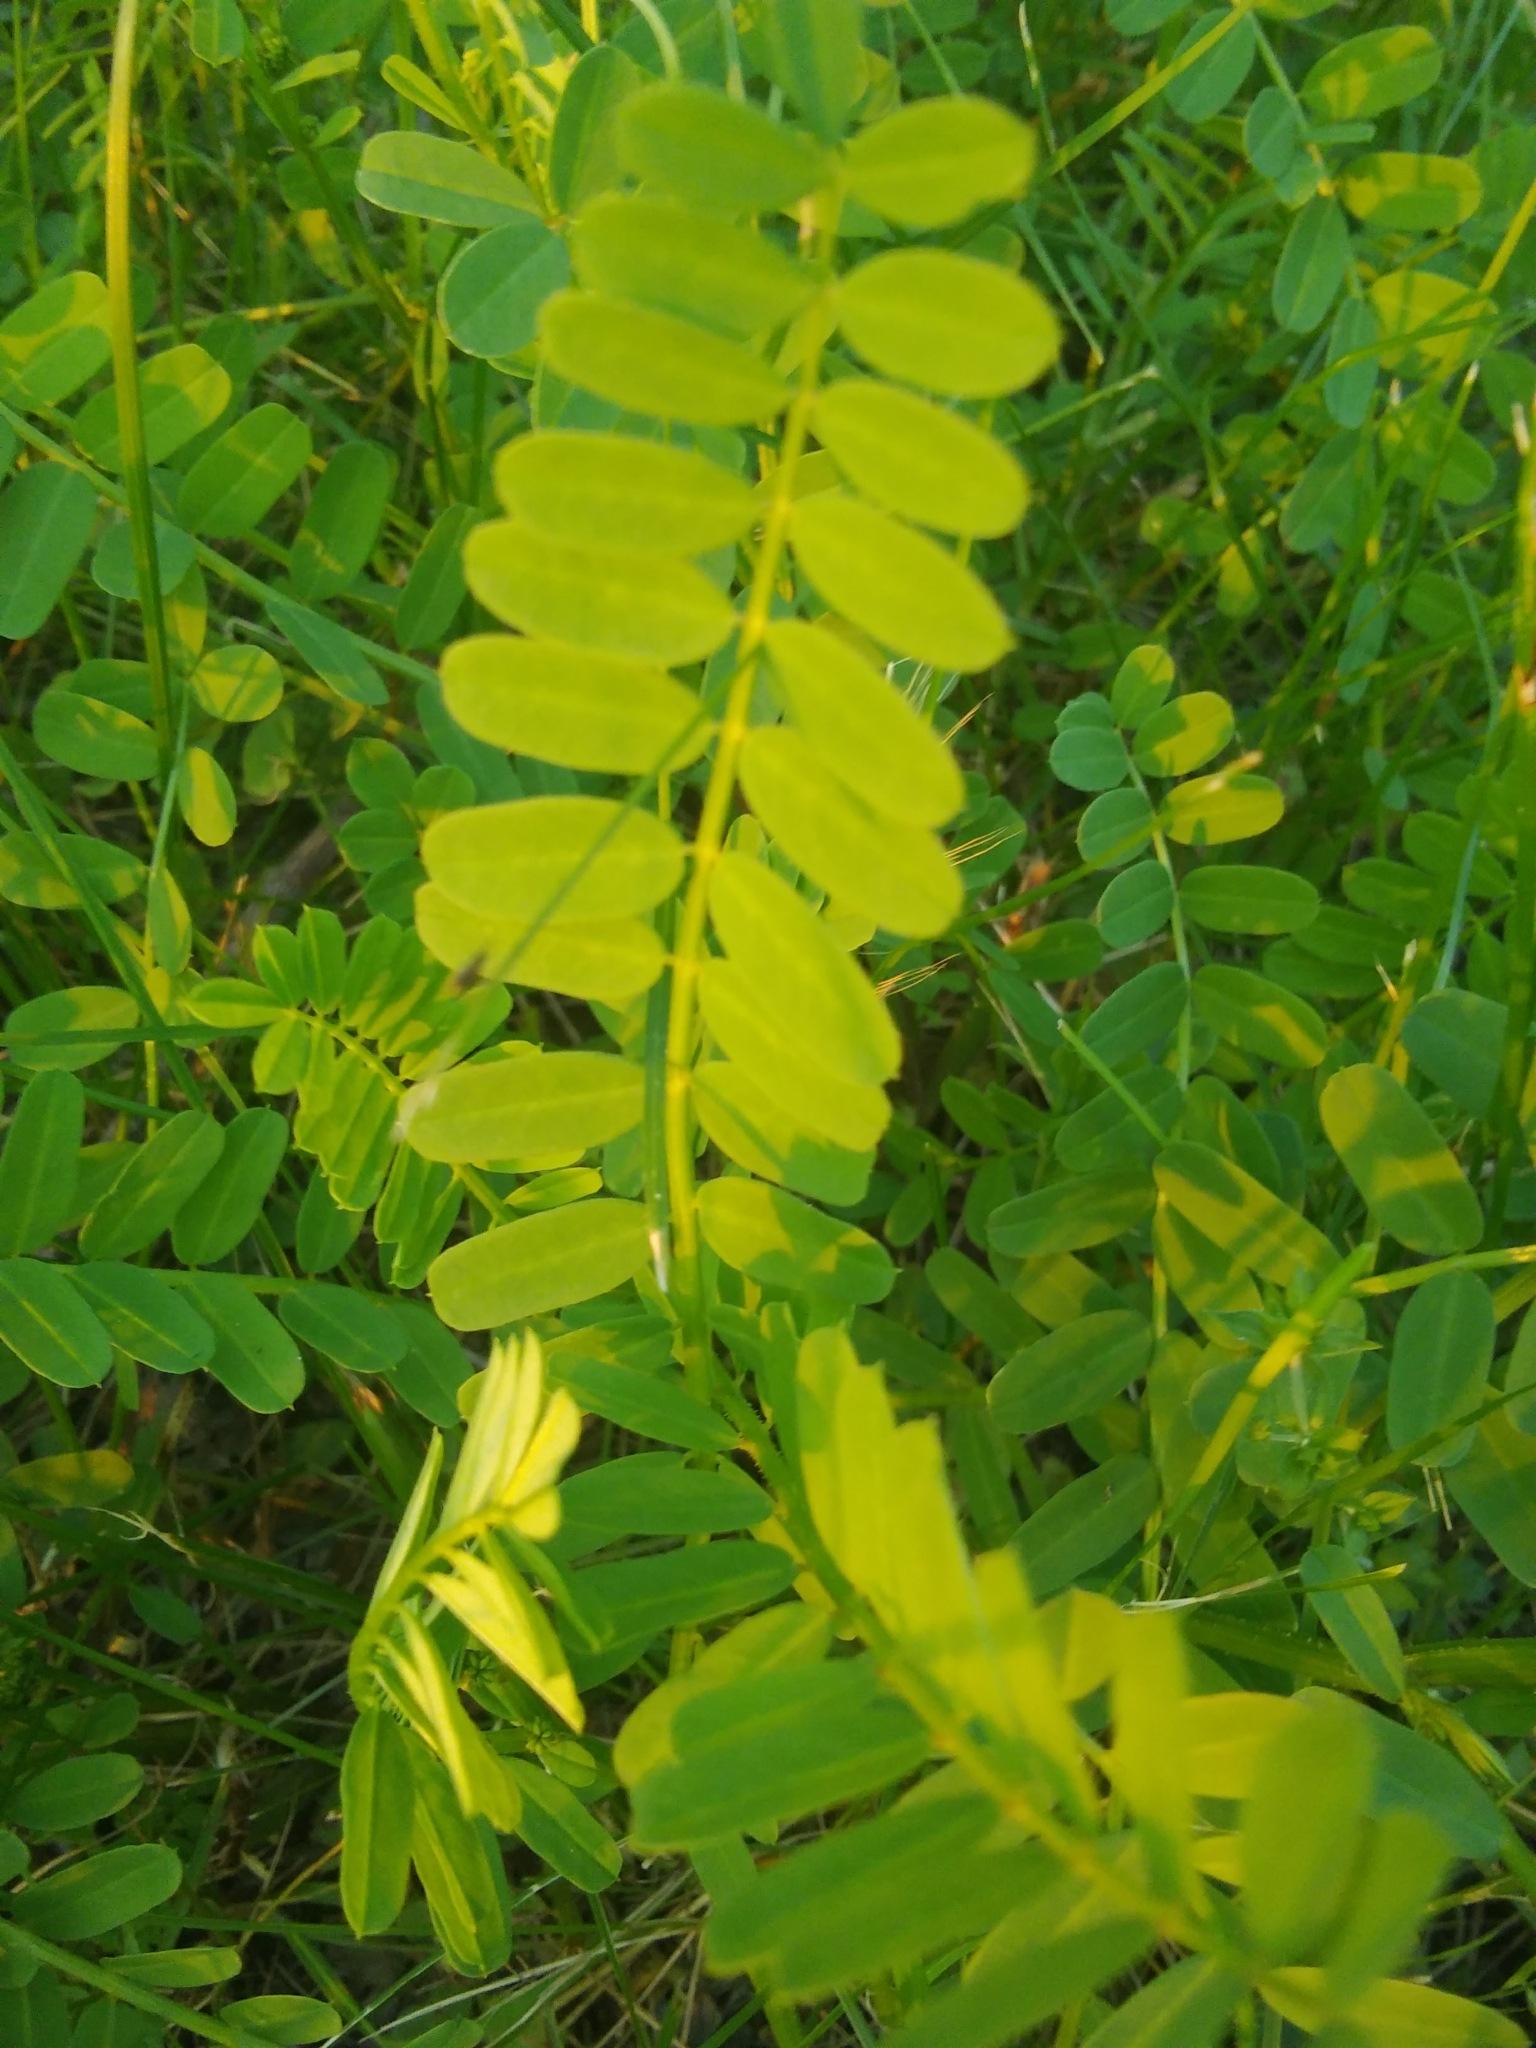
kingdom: Plantae
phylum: Tracheophyta
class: Magnoliopsida
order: Fabales
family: Fabaceae
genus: Coronilla
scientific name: Coronilla varia
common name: Crownvetch
